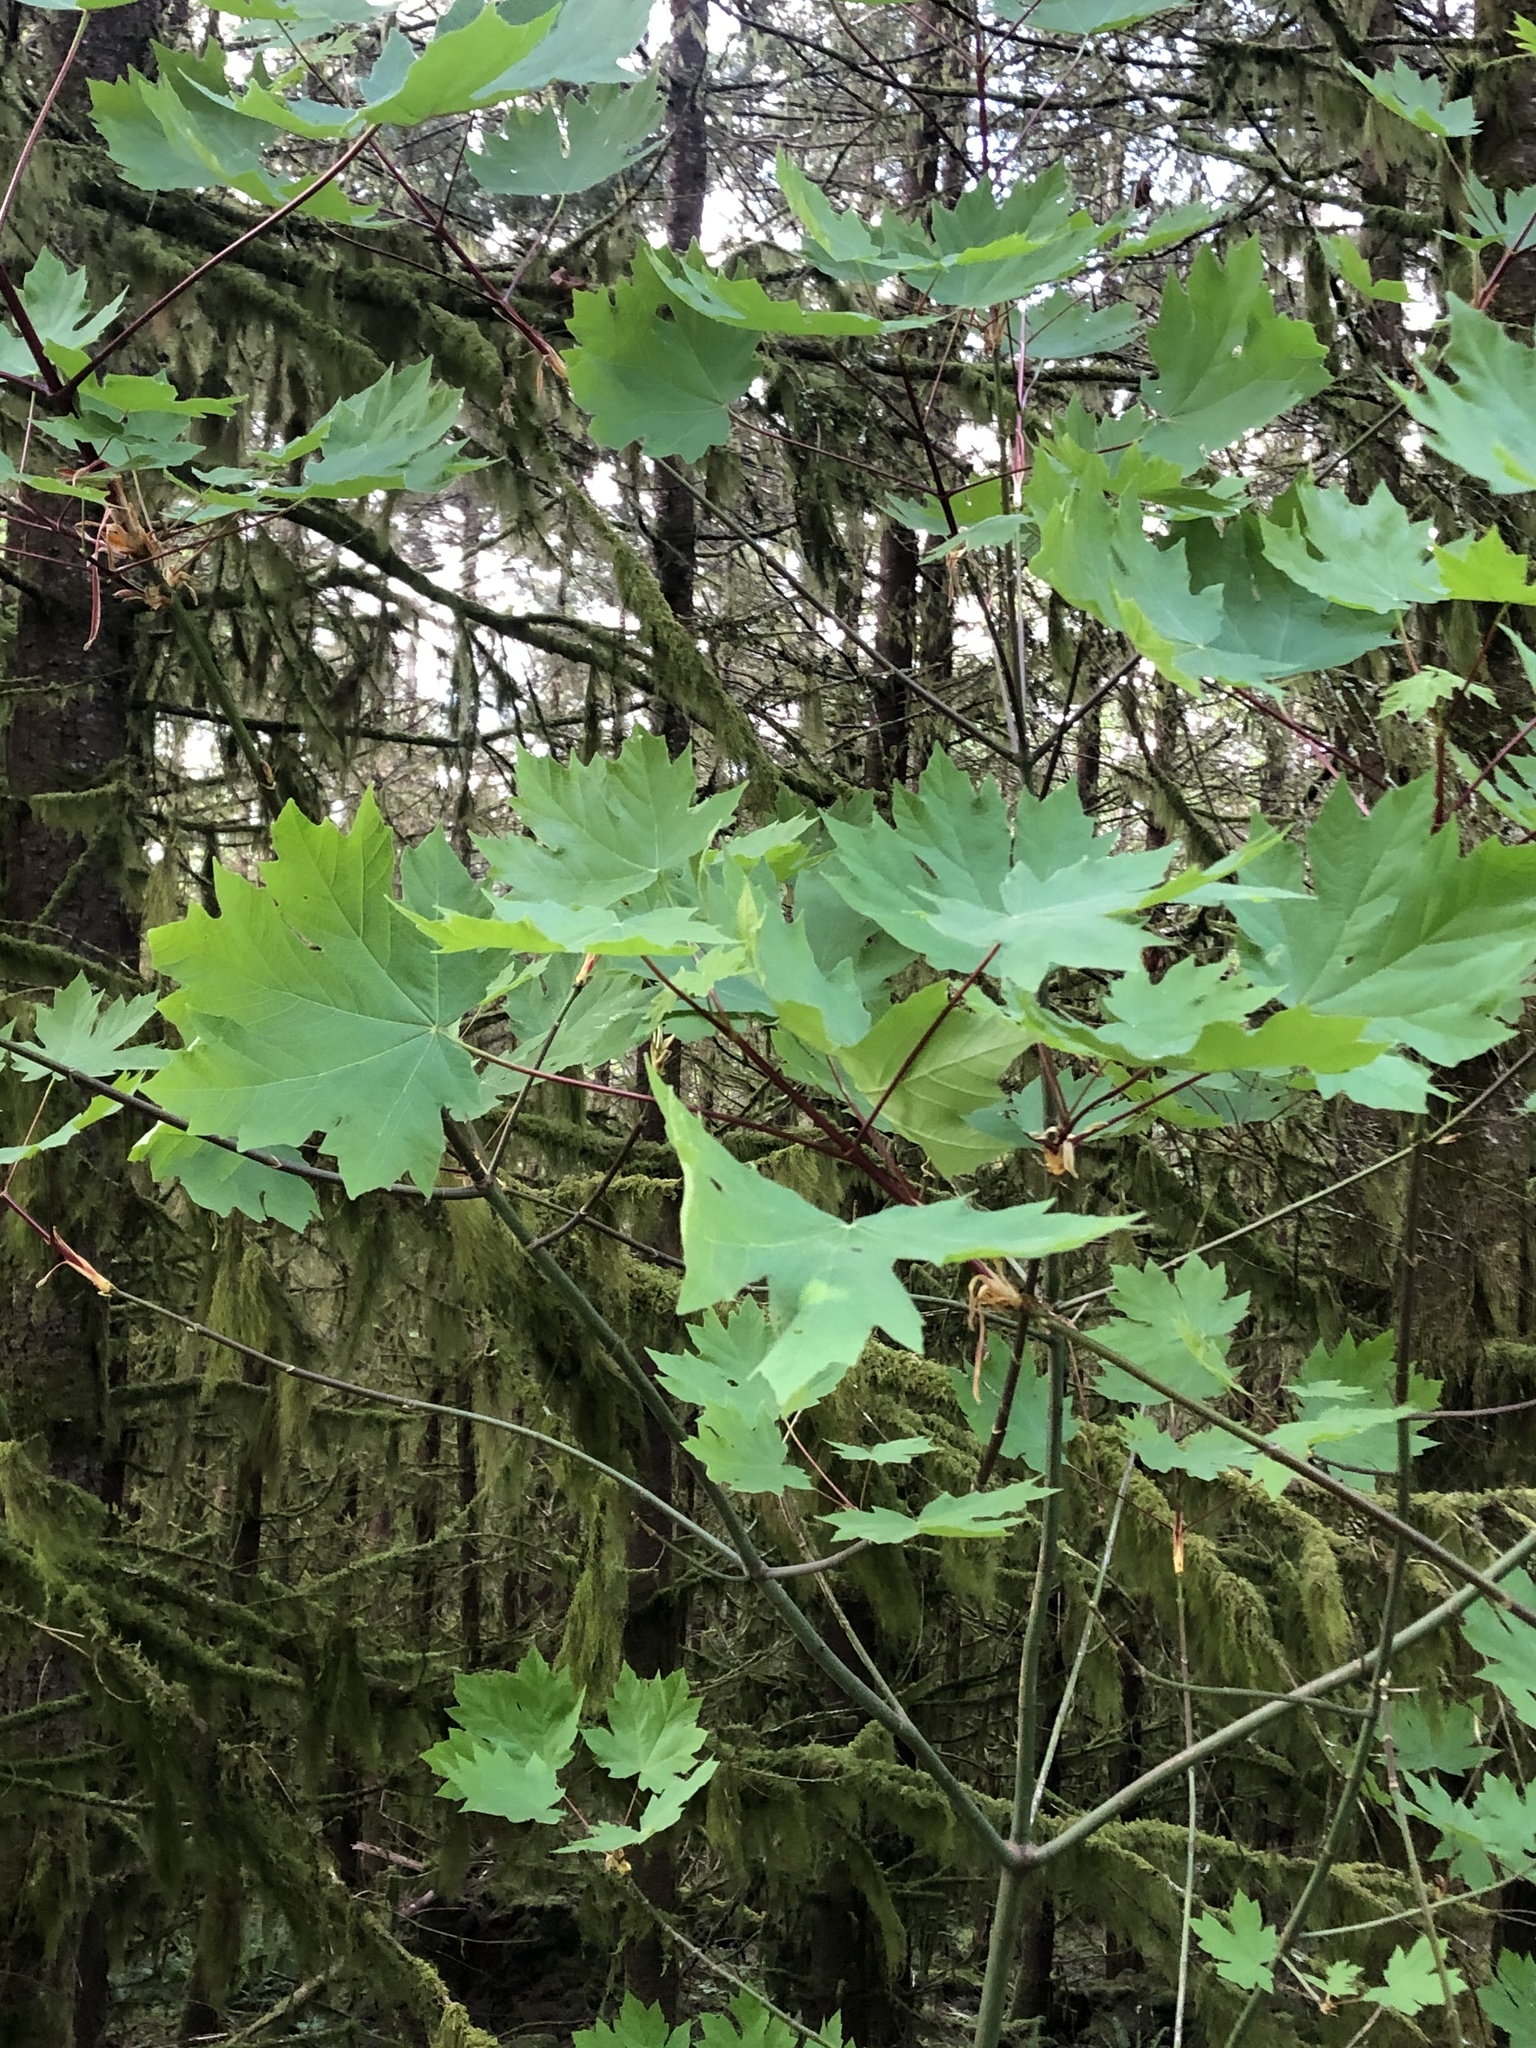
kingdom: Plantae
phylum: Tracheophyta
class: Magnoliopsida
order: Sapindales
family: Sapindaceae
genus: Acer
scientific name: Acer macrophyllum
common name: Oregon maple
